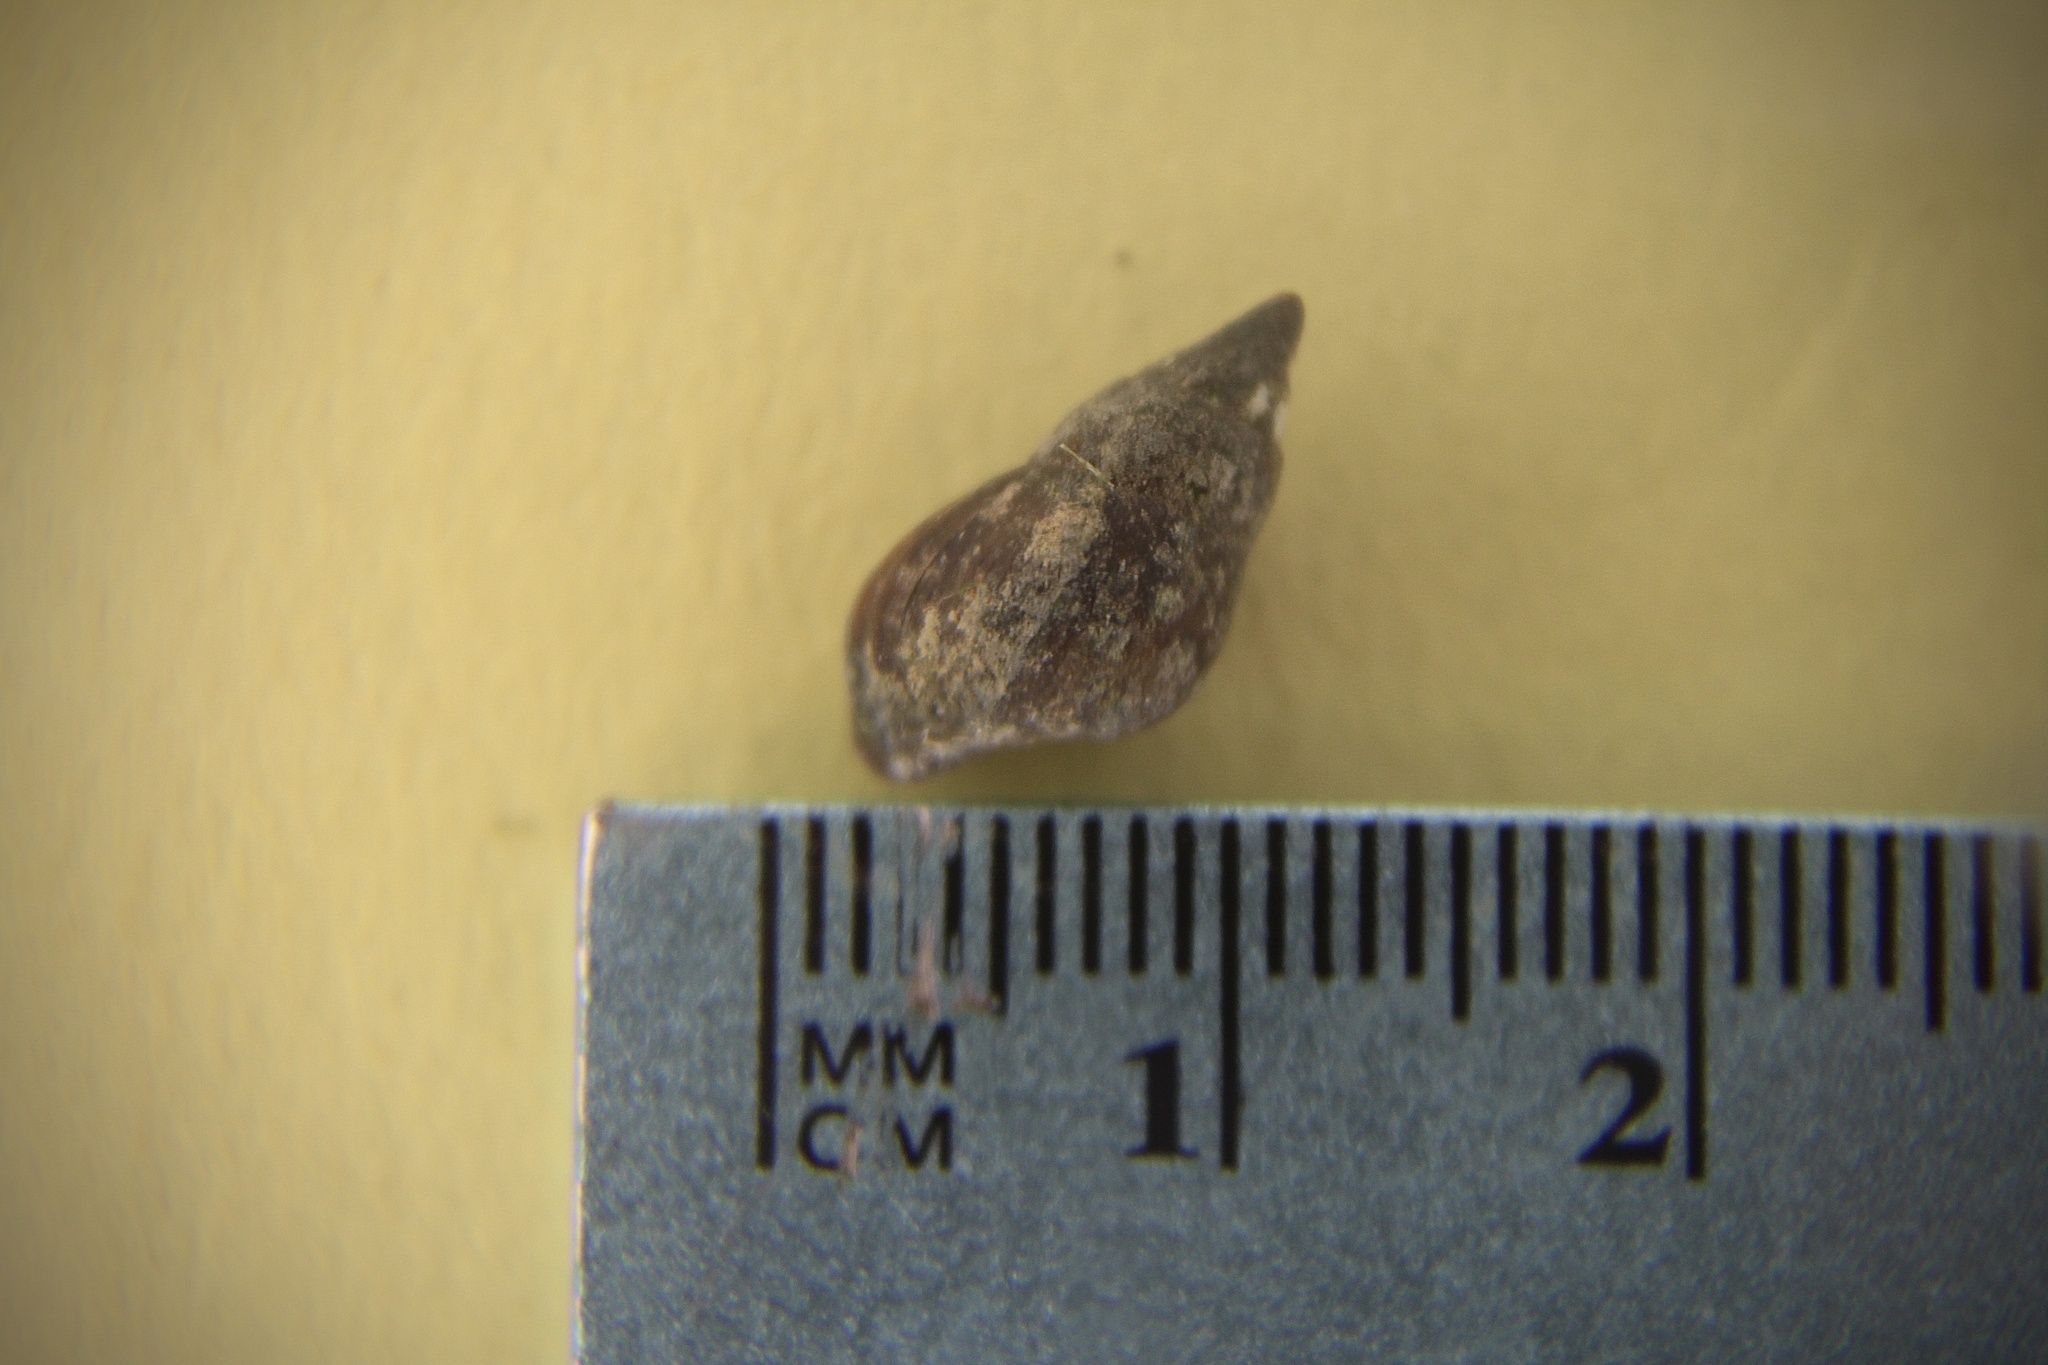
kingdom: Animalia
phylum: Mollusca
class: Gastropoda
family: Pleuroceridae
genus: Elimia
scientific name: Elimia livescens
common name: Liver elimia
